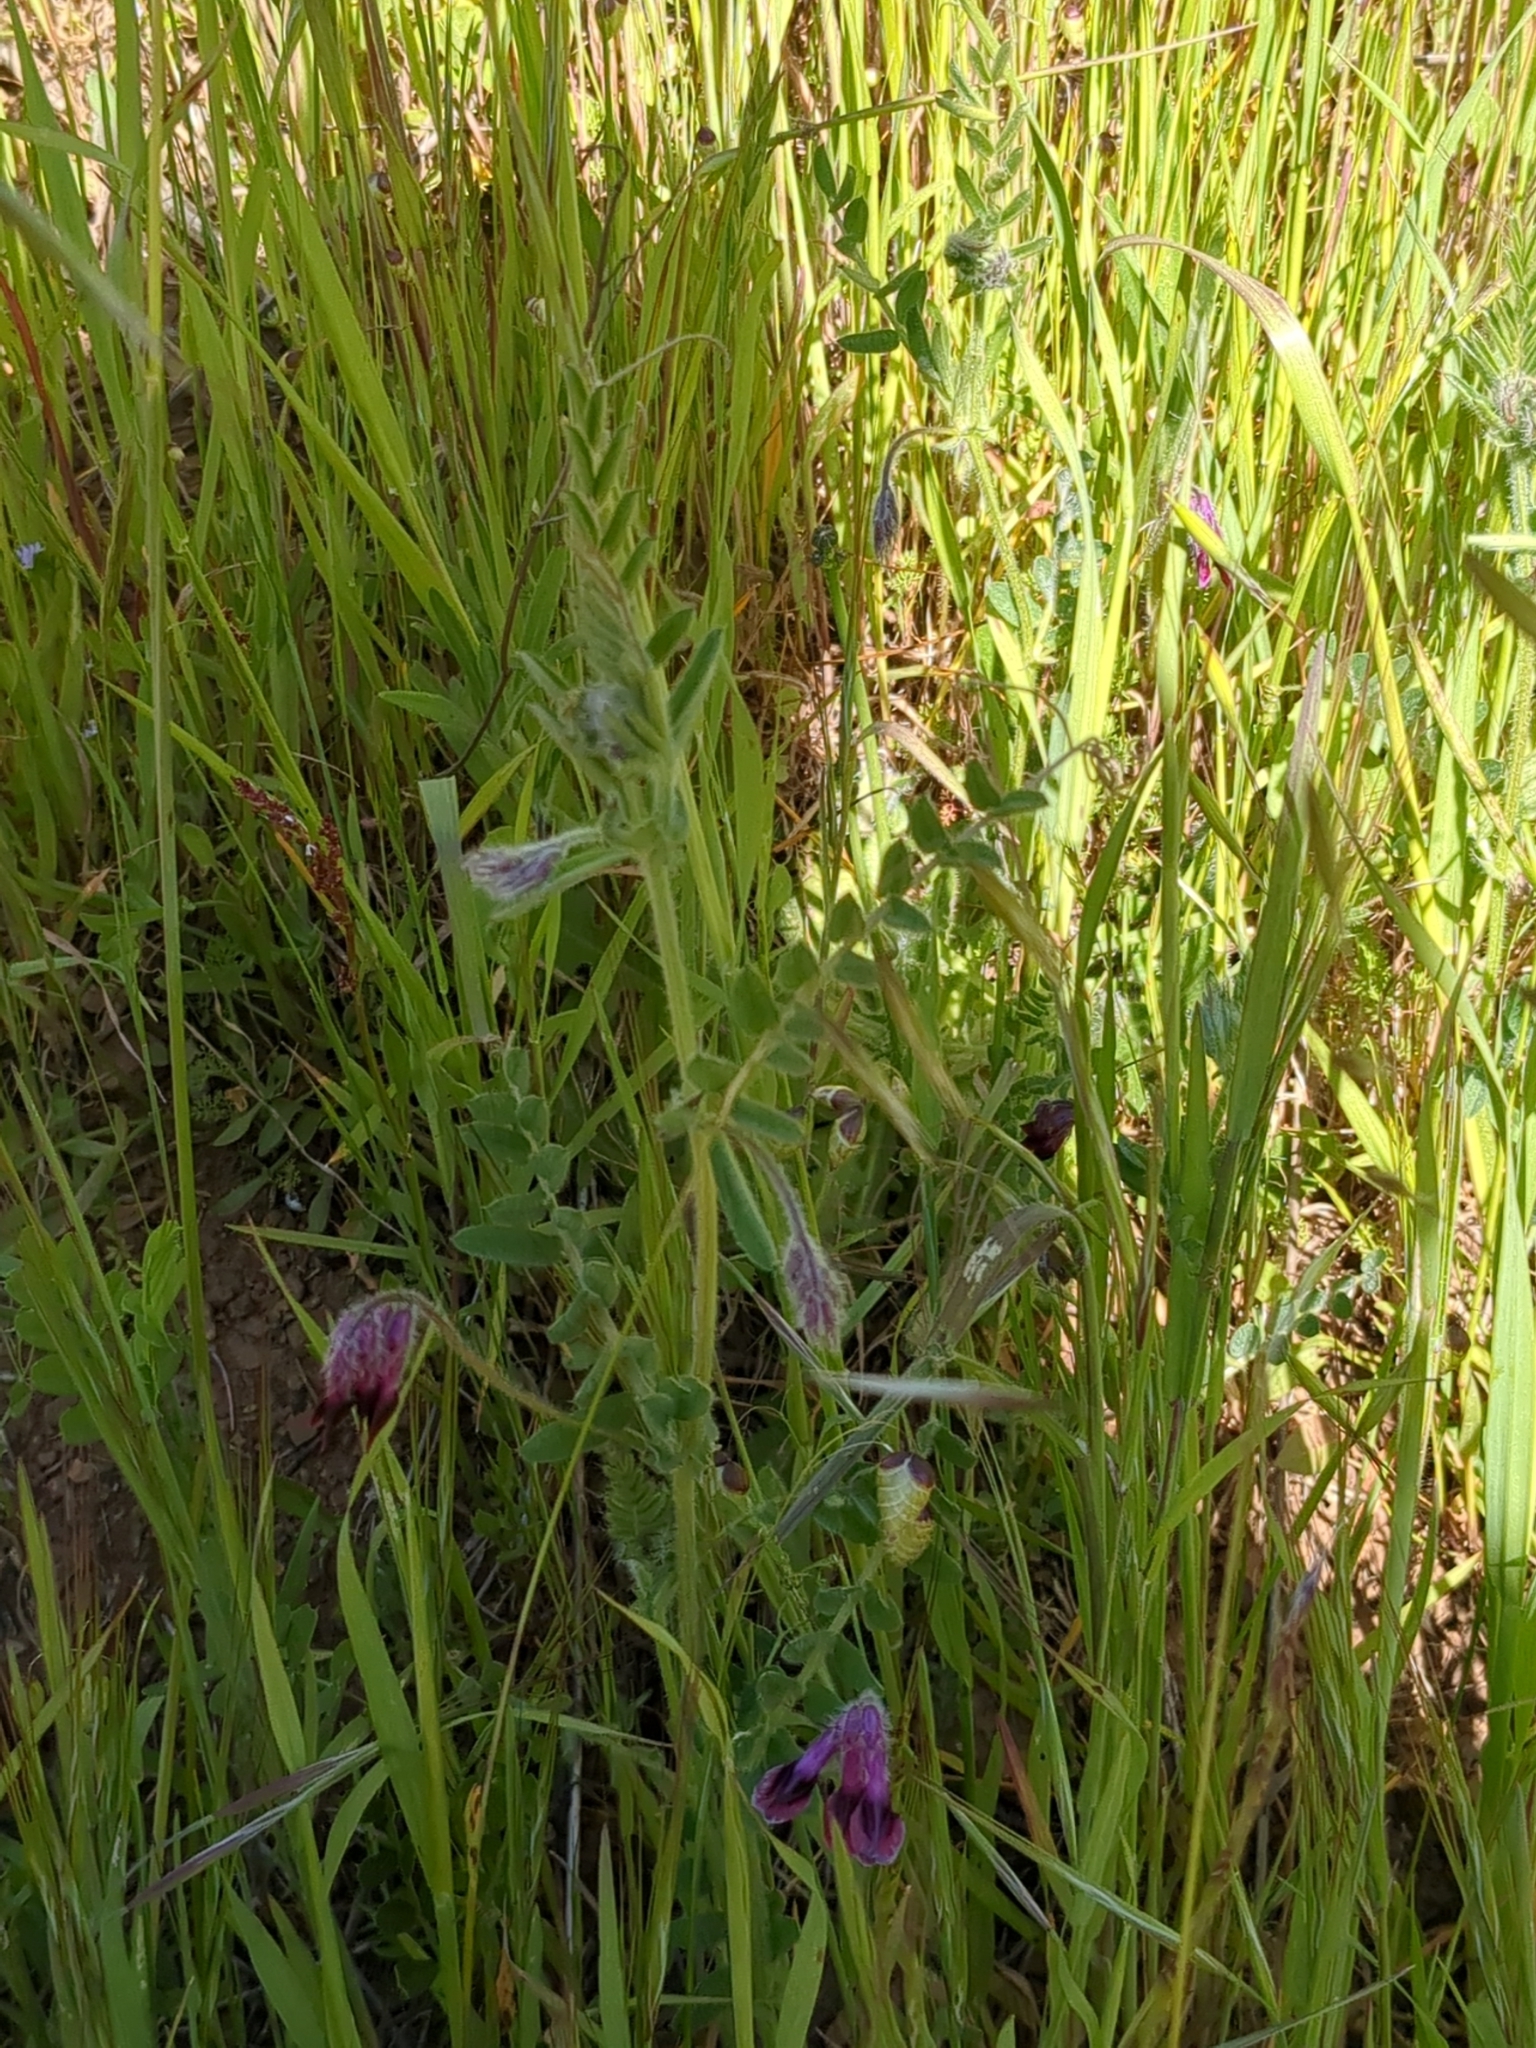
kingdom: Plantae
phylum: Tracheophyta
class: Magnoliopsida
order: Fabales
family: Fabaceae
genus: Vicia
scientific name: Vicia benghalensis
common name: Purple vetch
